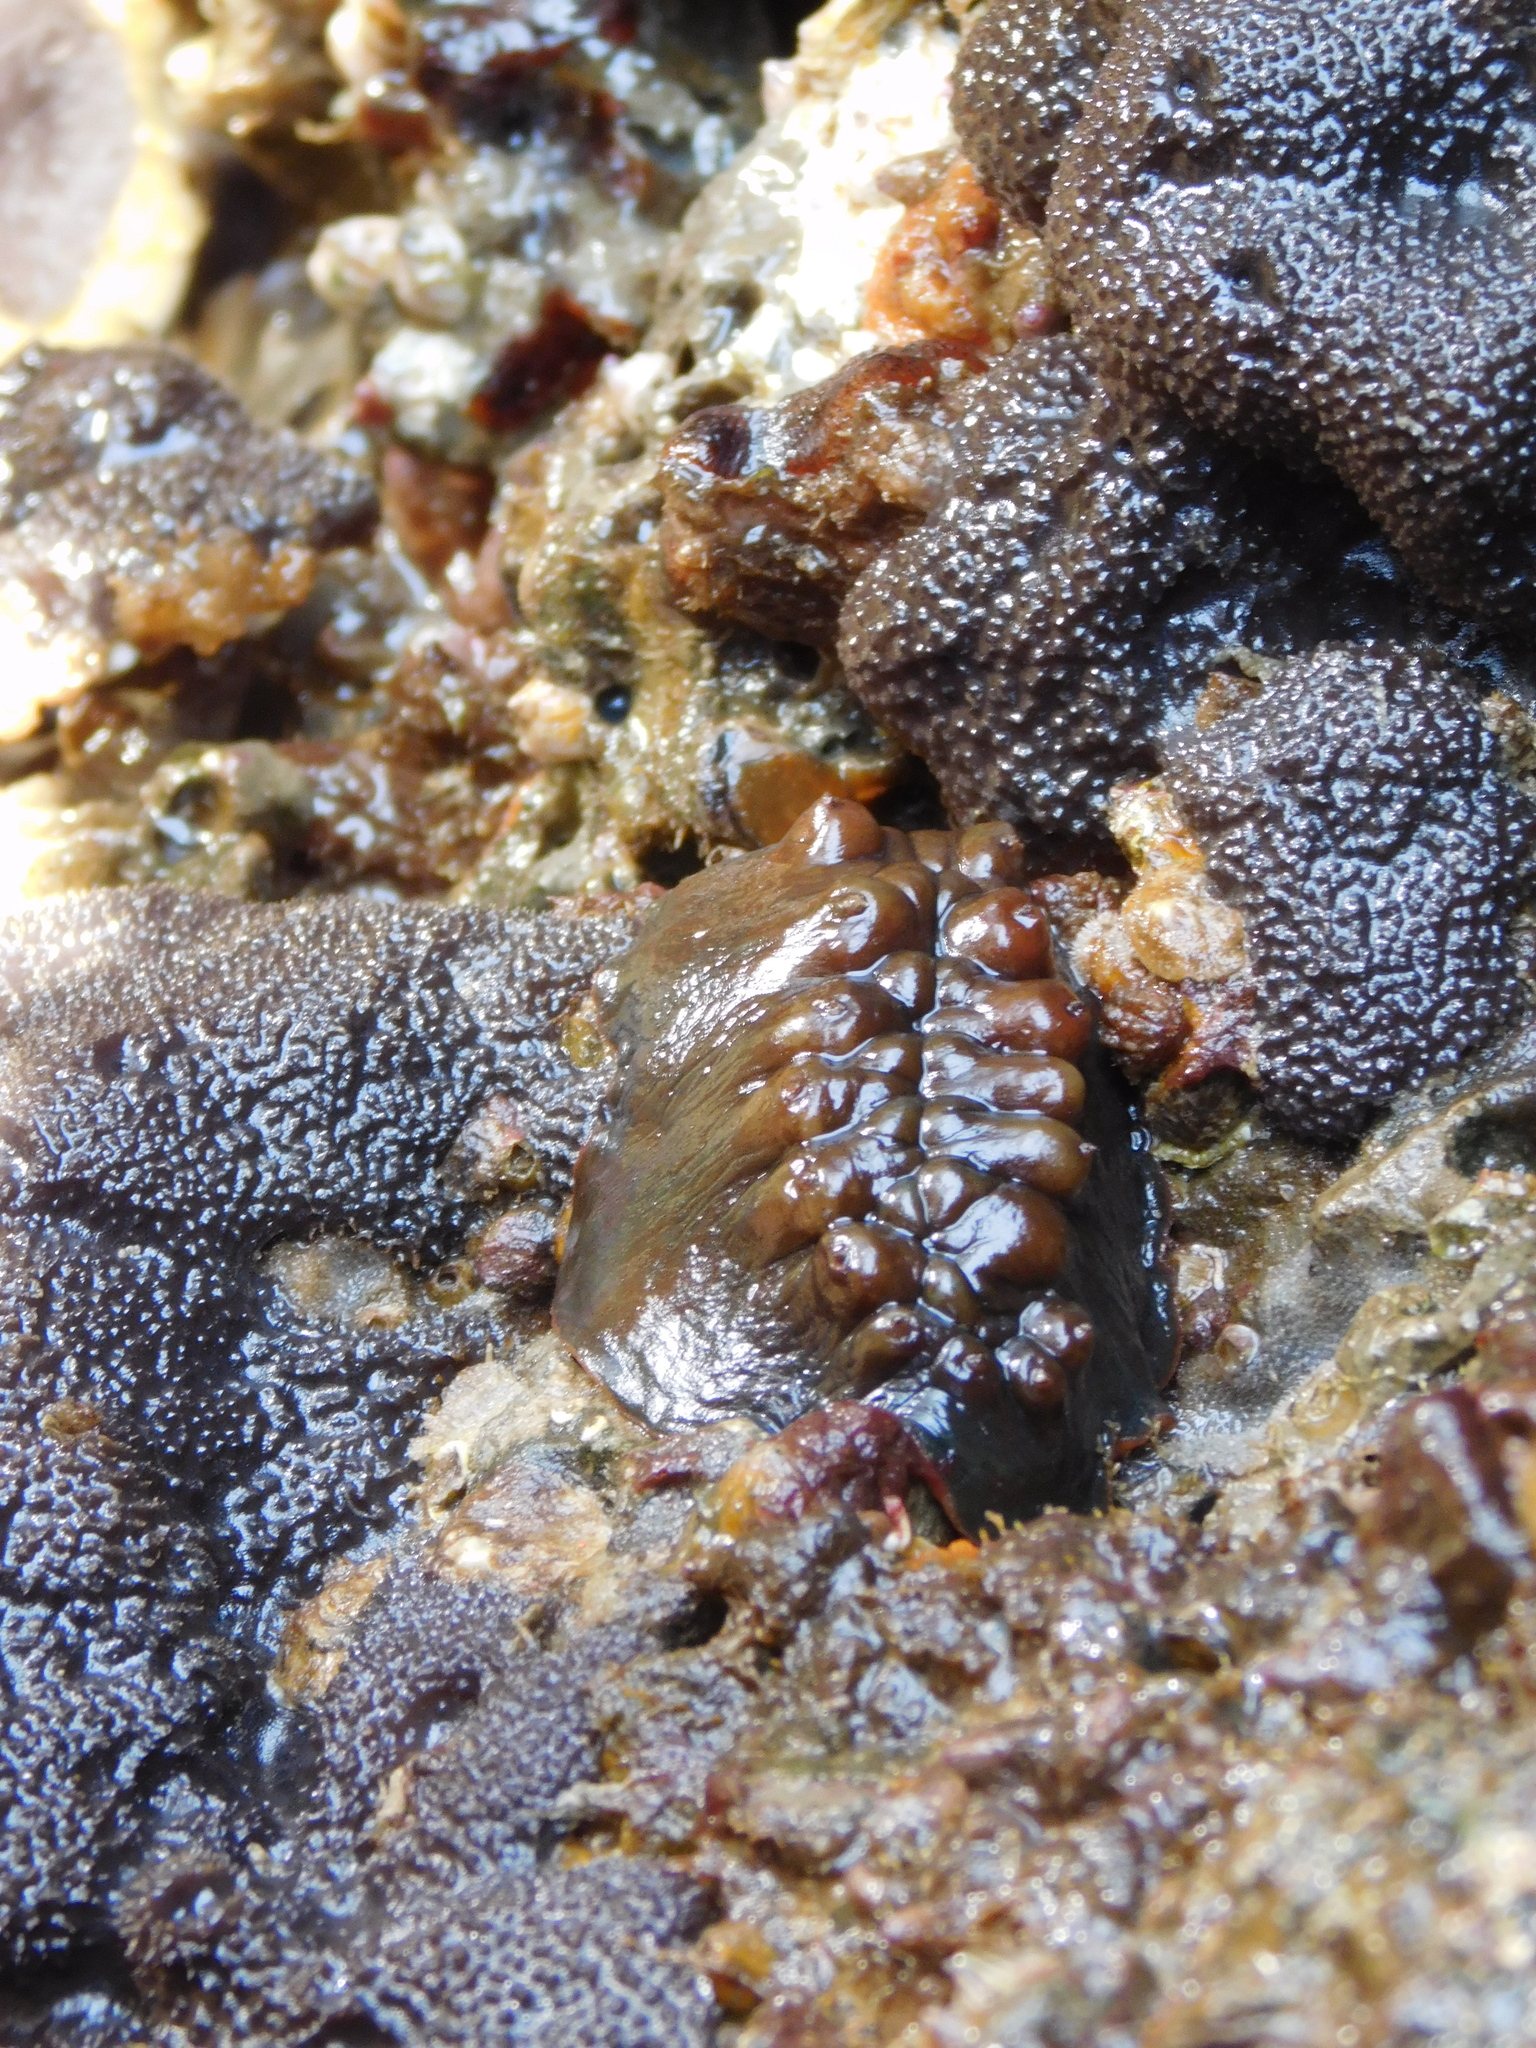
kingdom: Animalia
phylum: Mollusca
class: Polyplacophora
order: Chitonida
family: Acanthochitonidae
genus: Cryptoconchus
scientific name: Cryptoconchus porosus
